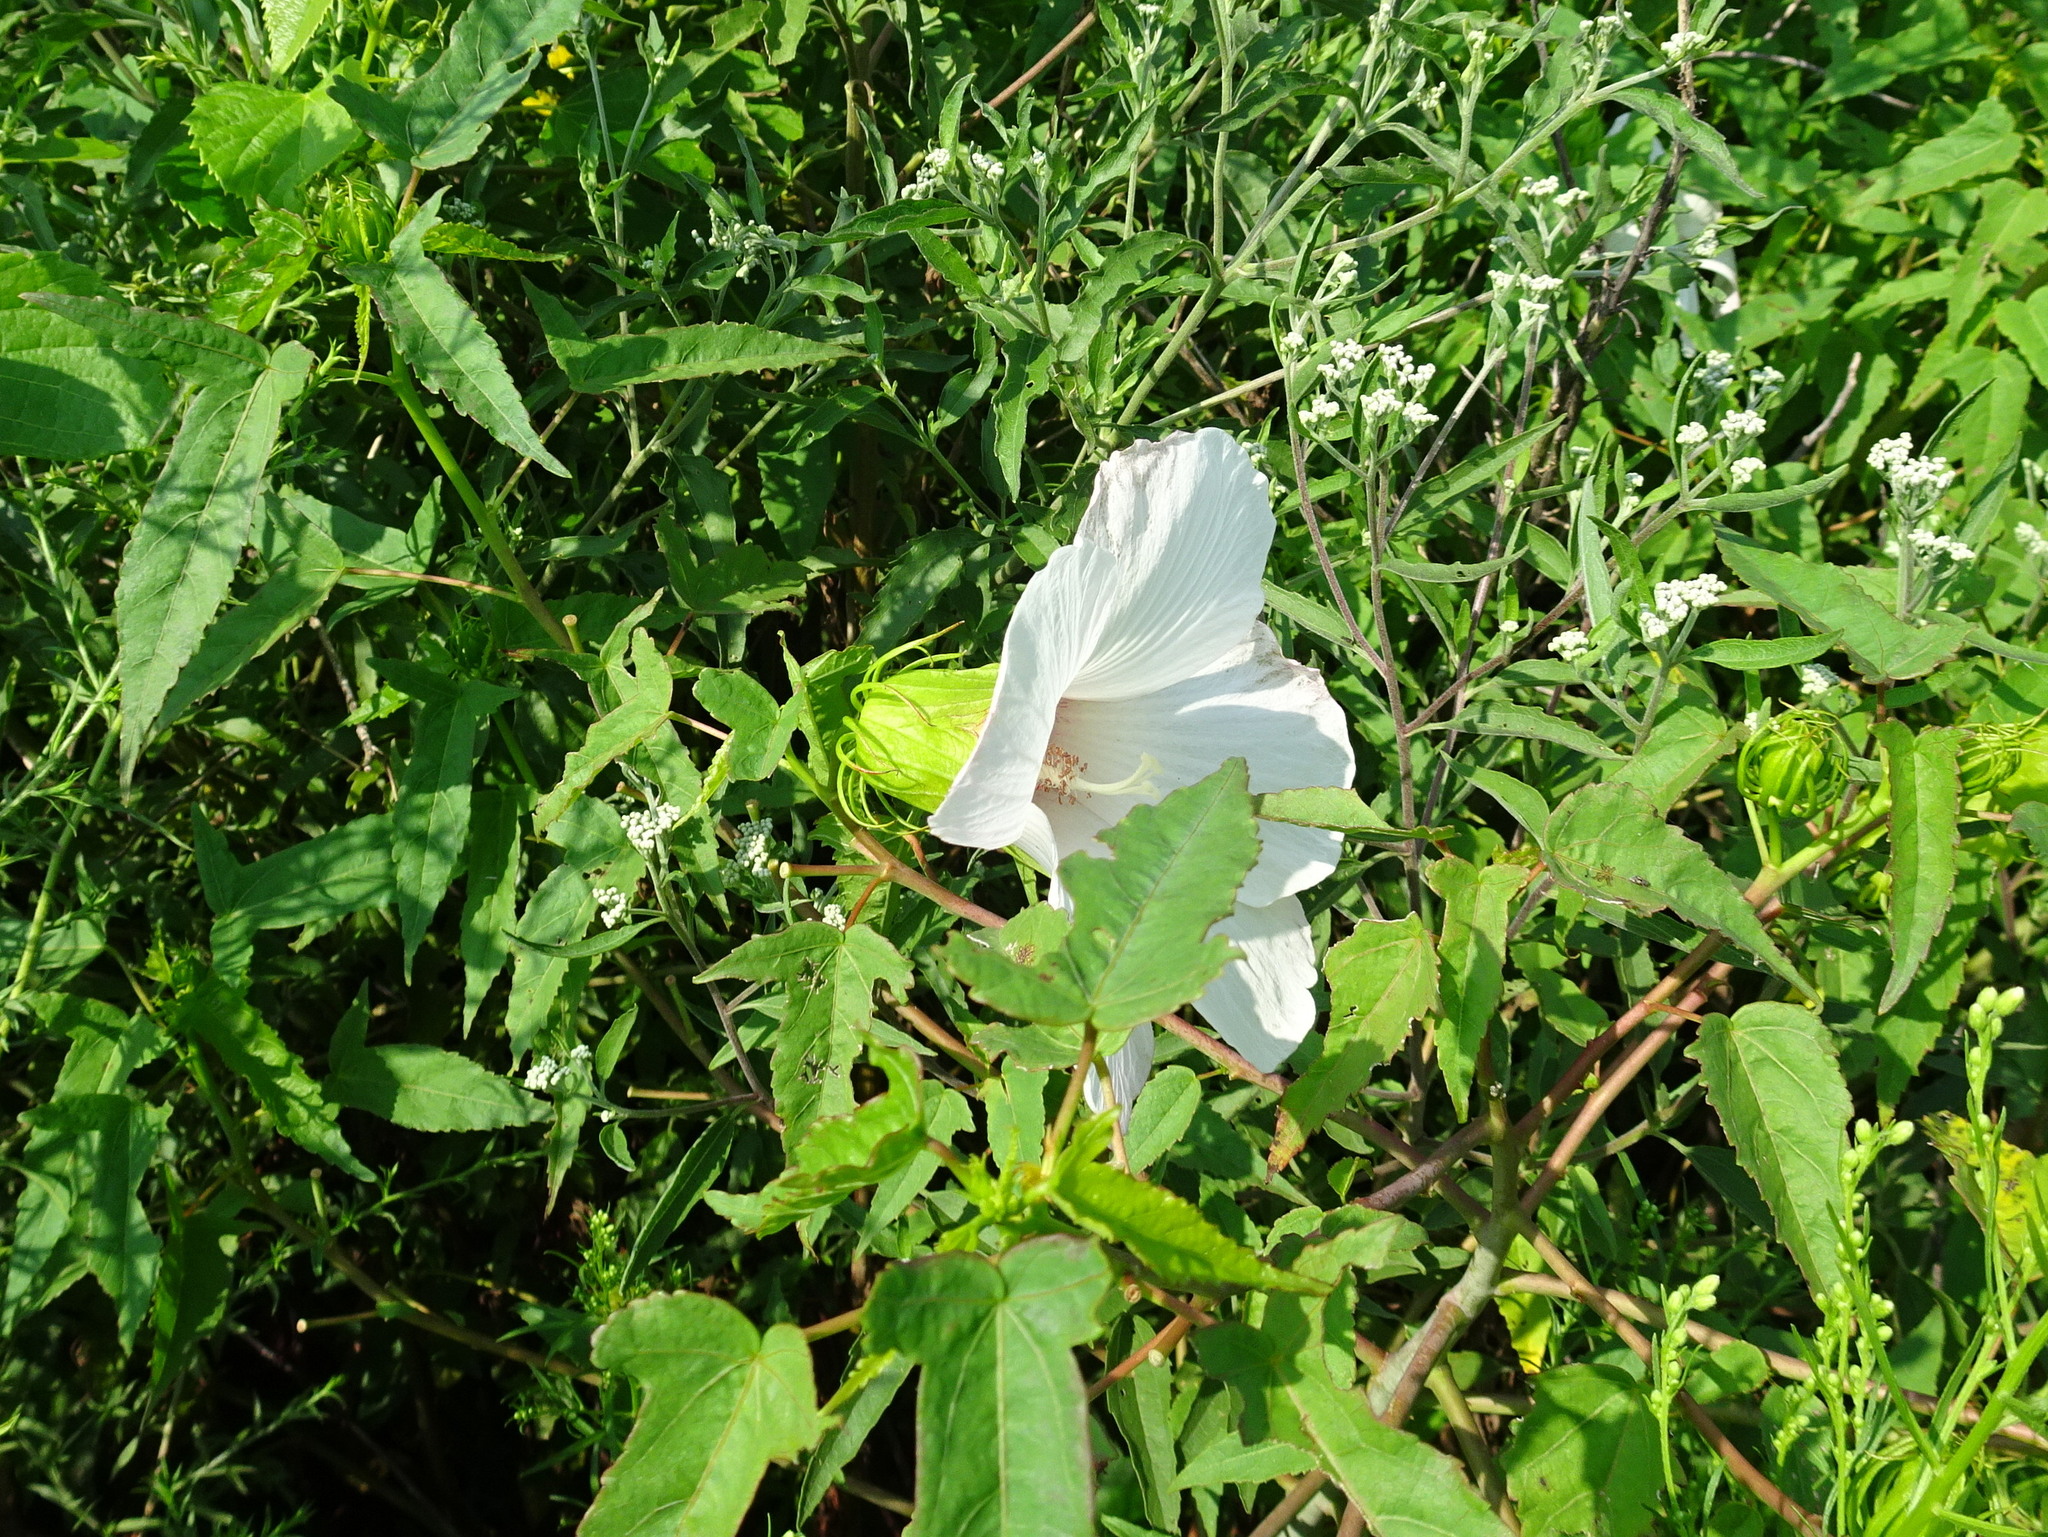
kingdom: Plantae
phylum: Tracheophyta
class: Magnoliopsida
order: Malvales
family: Malvaceae
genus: Hibiscus
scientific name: Hibiscus laevis
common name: Scarlet rose-mallow
